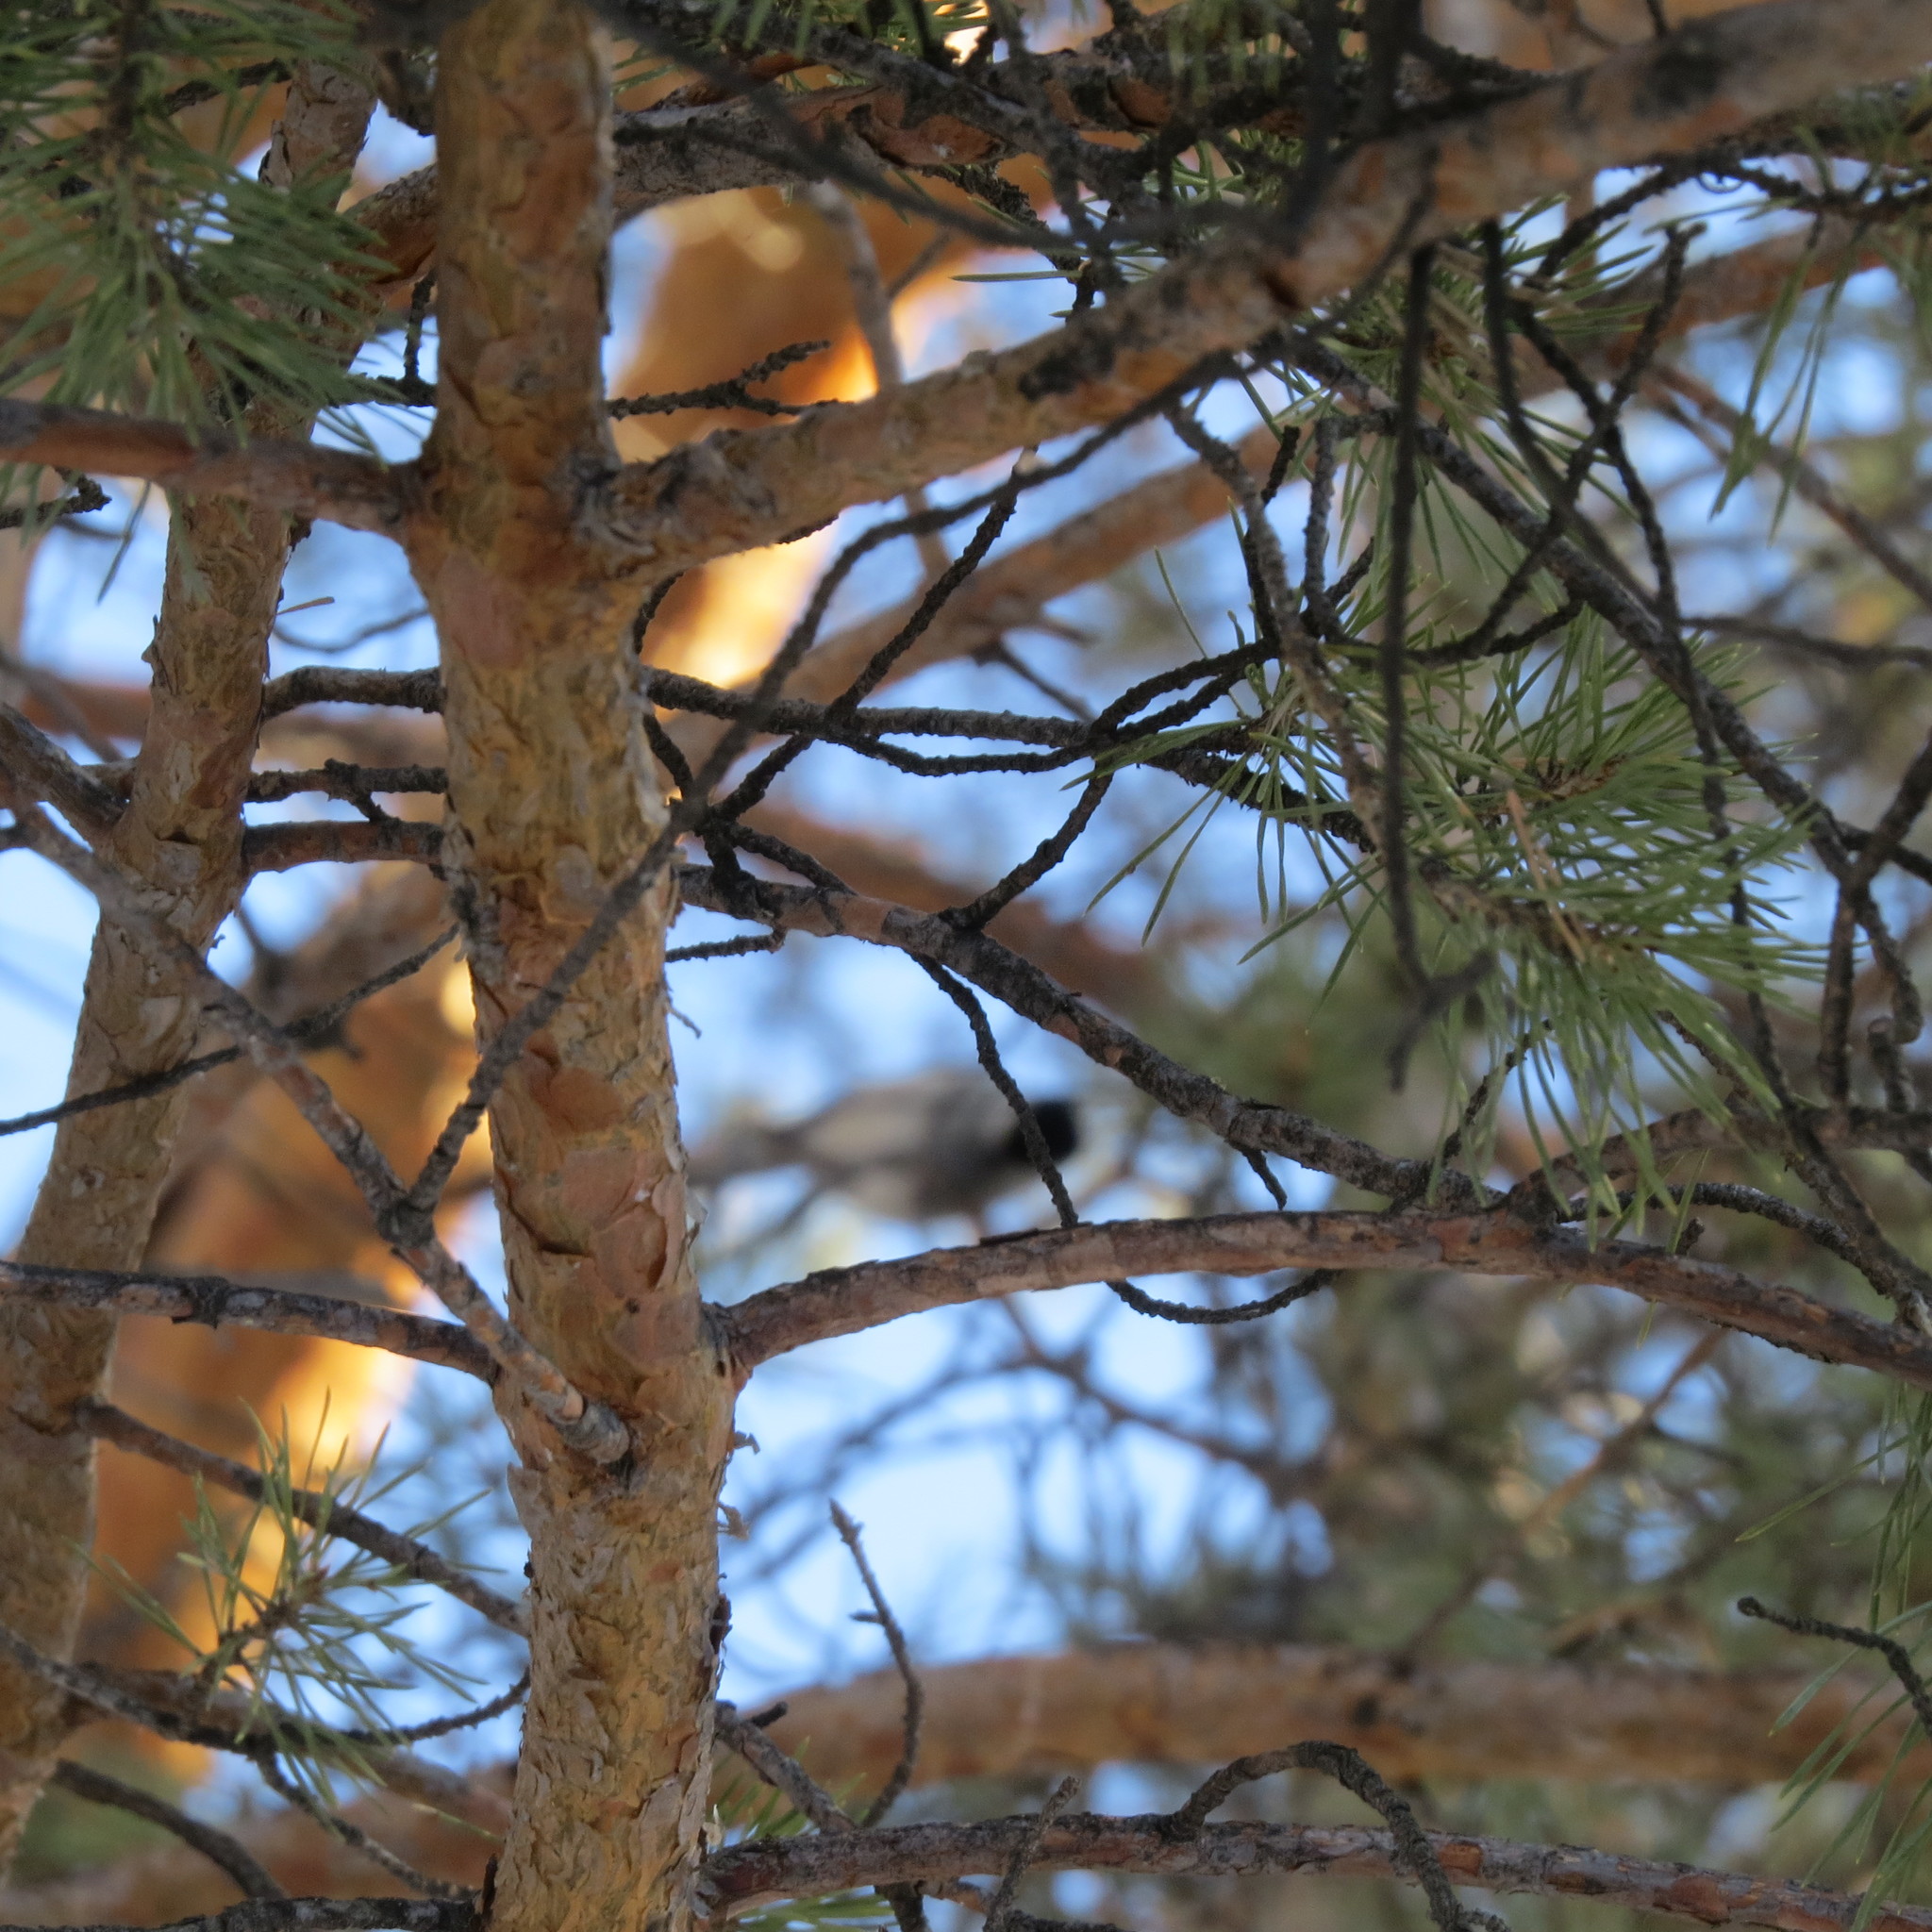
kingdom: Animalia
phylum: Chordata
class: Aves
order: Passeriformes
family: Paridae
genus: Poecile
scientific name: Poecile montanus
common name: Willow tit
